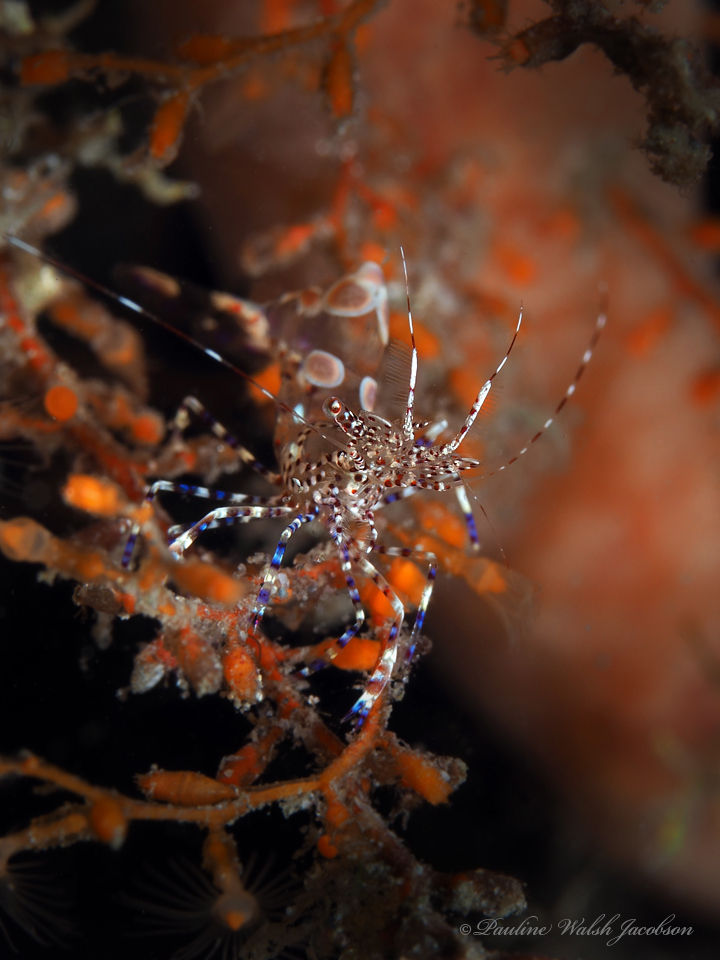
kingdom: Animalia
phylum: Arthropoda
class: Malacostraca
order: Decapoda
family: Palaemonidae
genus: Periclimenes
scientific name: Periclimenes yucatanicus
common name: Spotted cleaning shrimp
